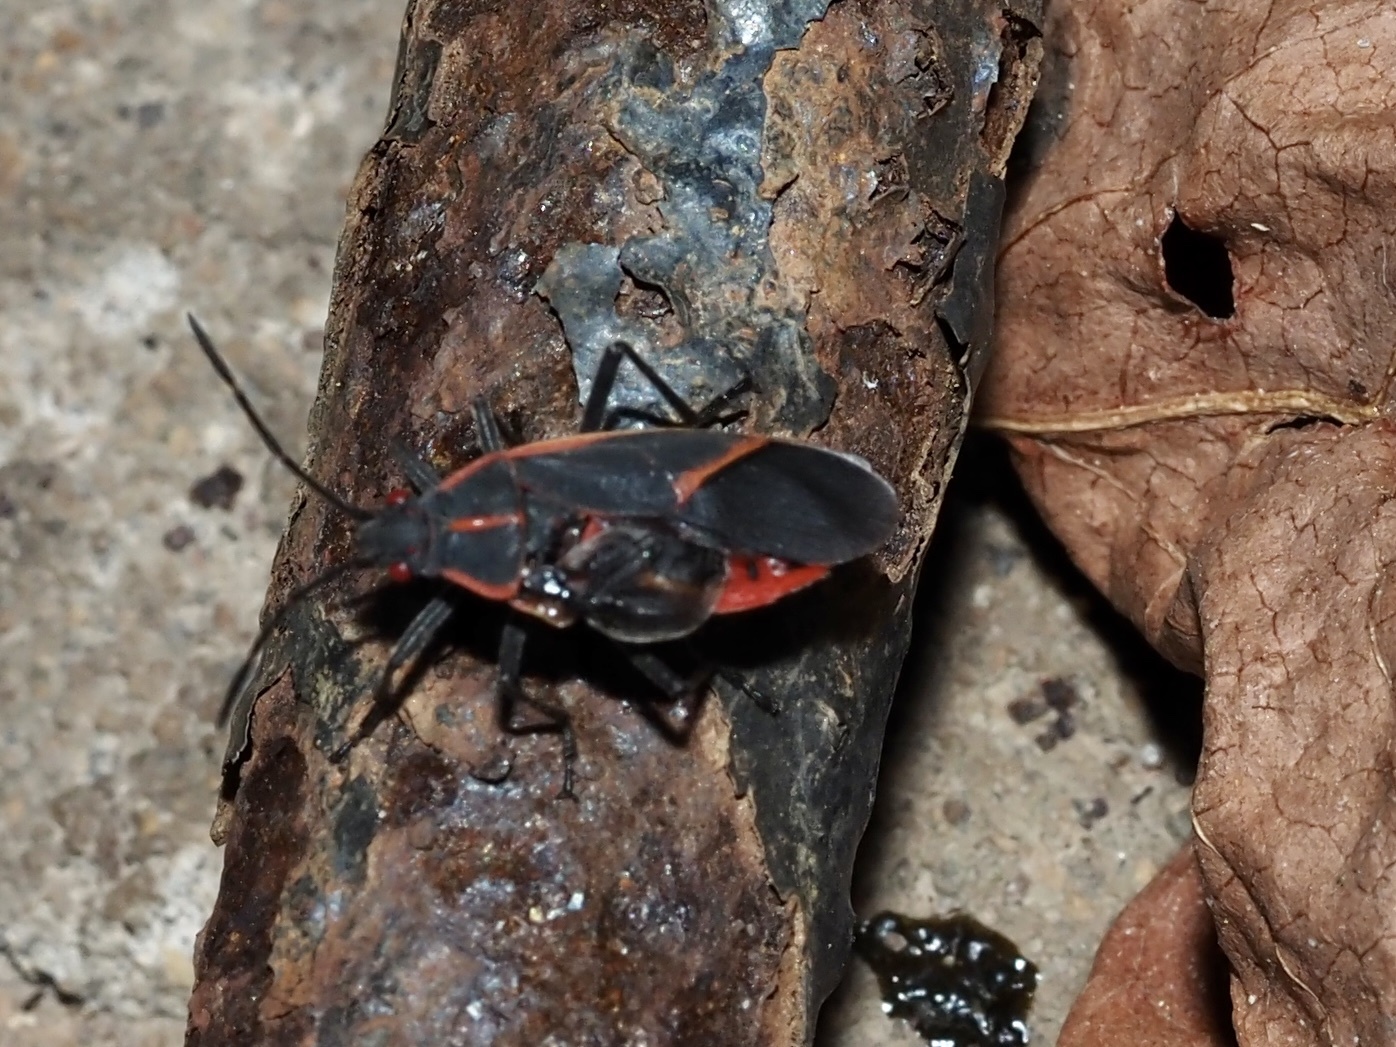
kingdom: Animalia
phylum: Arthropoda
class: Insecta
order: Hemiptera
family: Rhopalidae
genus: Boisea
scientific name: Boisea trivittata
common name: Boxelder bug
